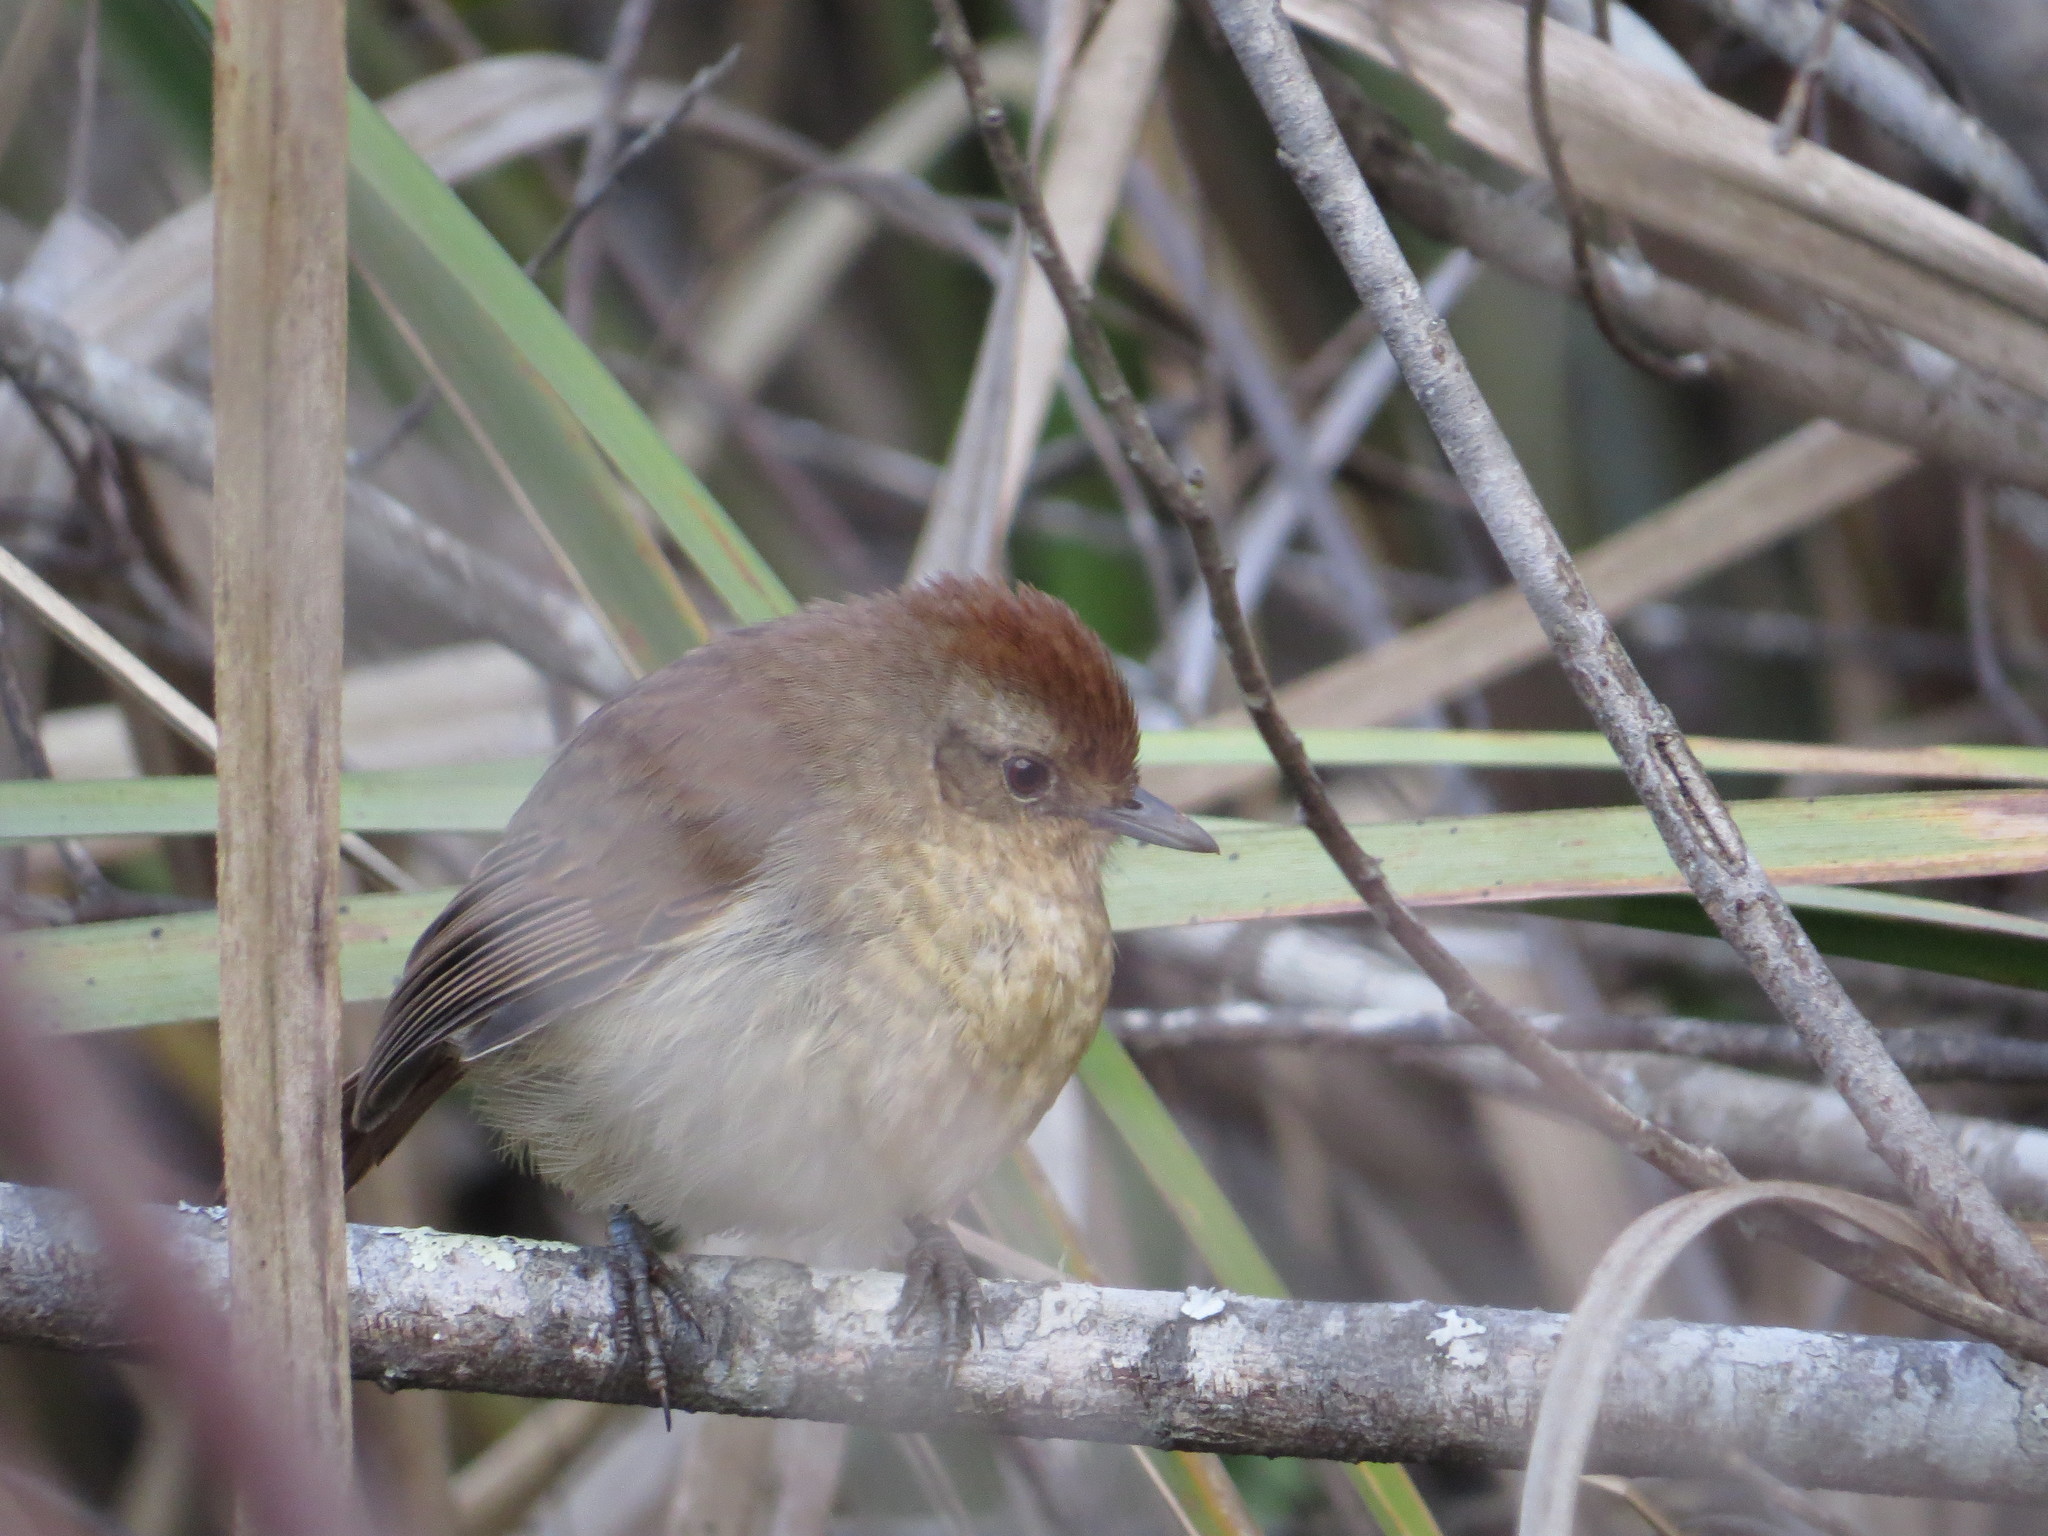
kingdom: Animalia
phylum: Chordata
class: Aves
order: Passeriformes
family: Thamnophilidae
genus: Thamnophilus
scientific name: Thamnophilus ruficapillus
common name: Rufous-capped antshrike
